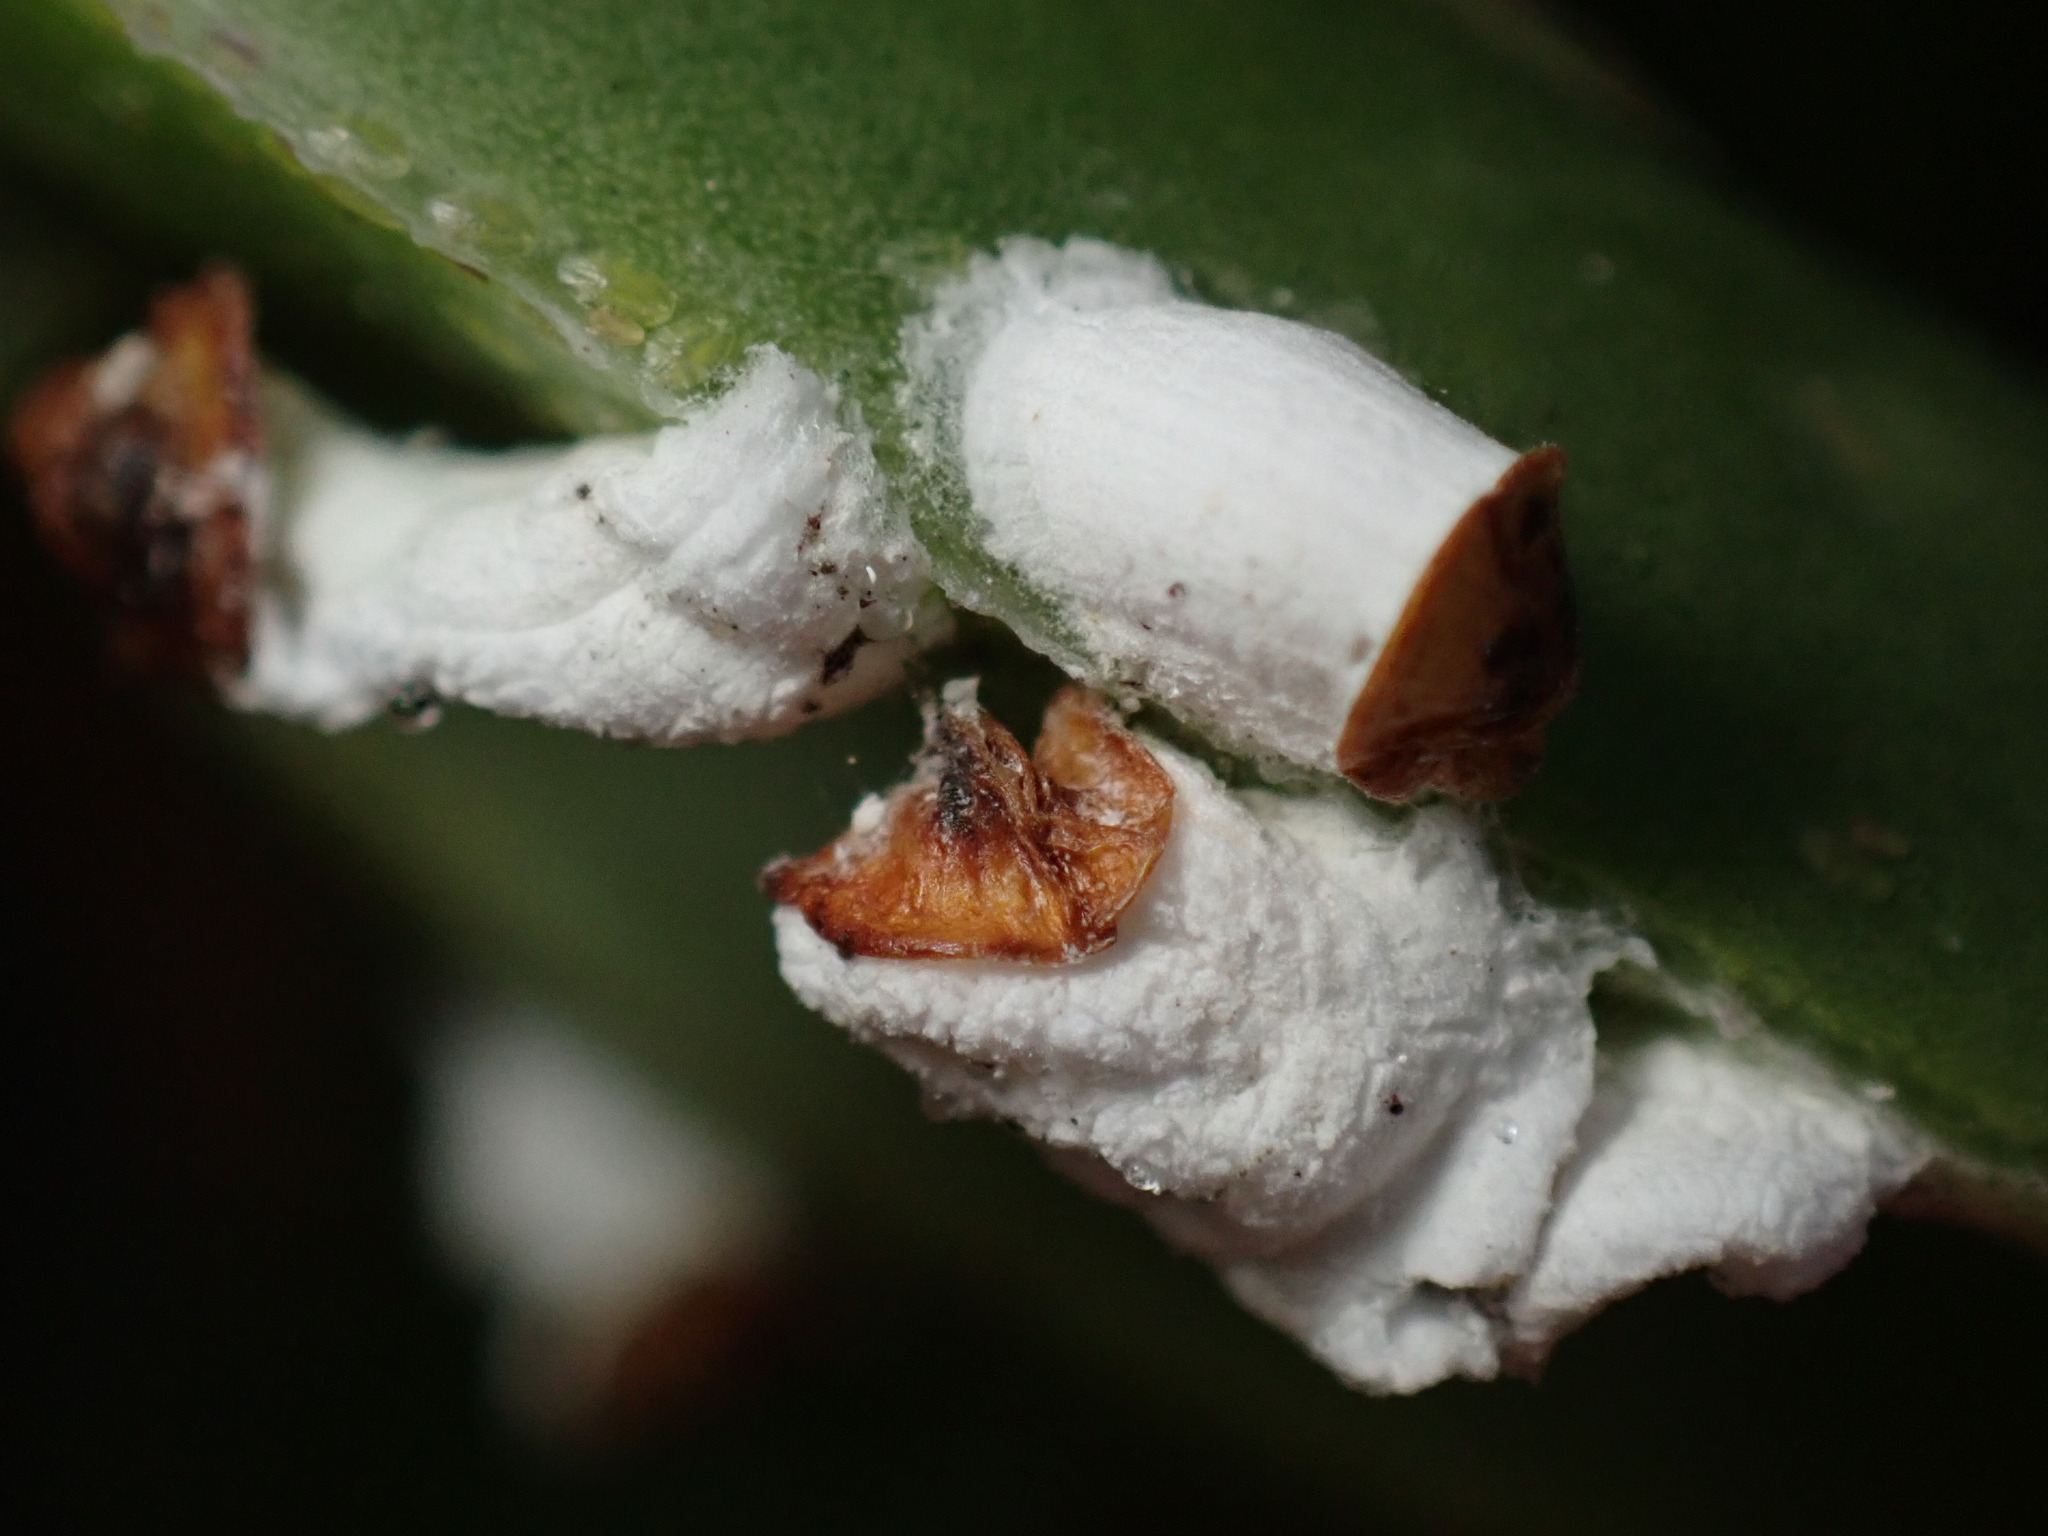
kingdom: Animalia
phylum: Arthropoda
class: Insecta
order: Hemiptera
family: Coccidae
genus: Pulvinariella
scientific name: Pulvinariella mesembryanthemi
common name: Cottony pigface scale
